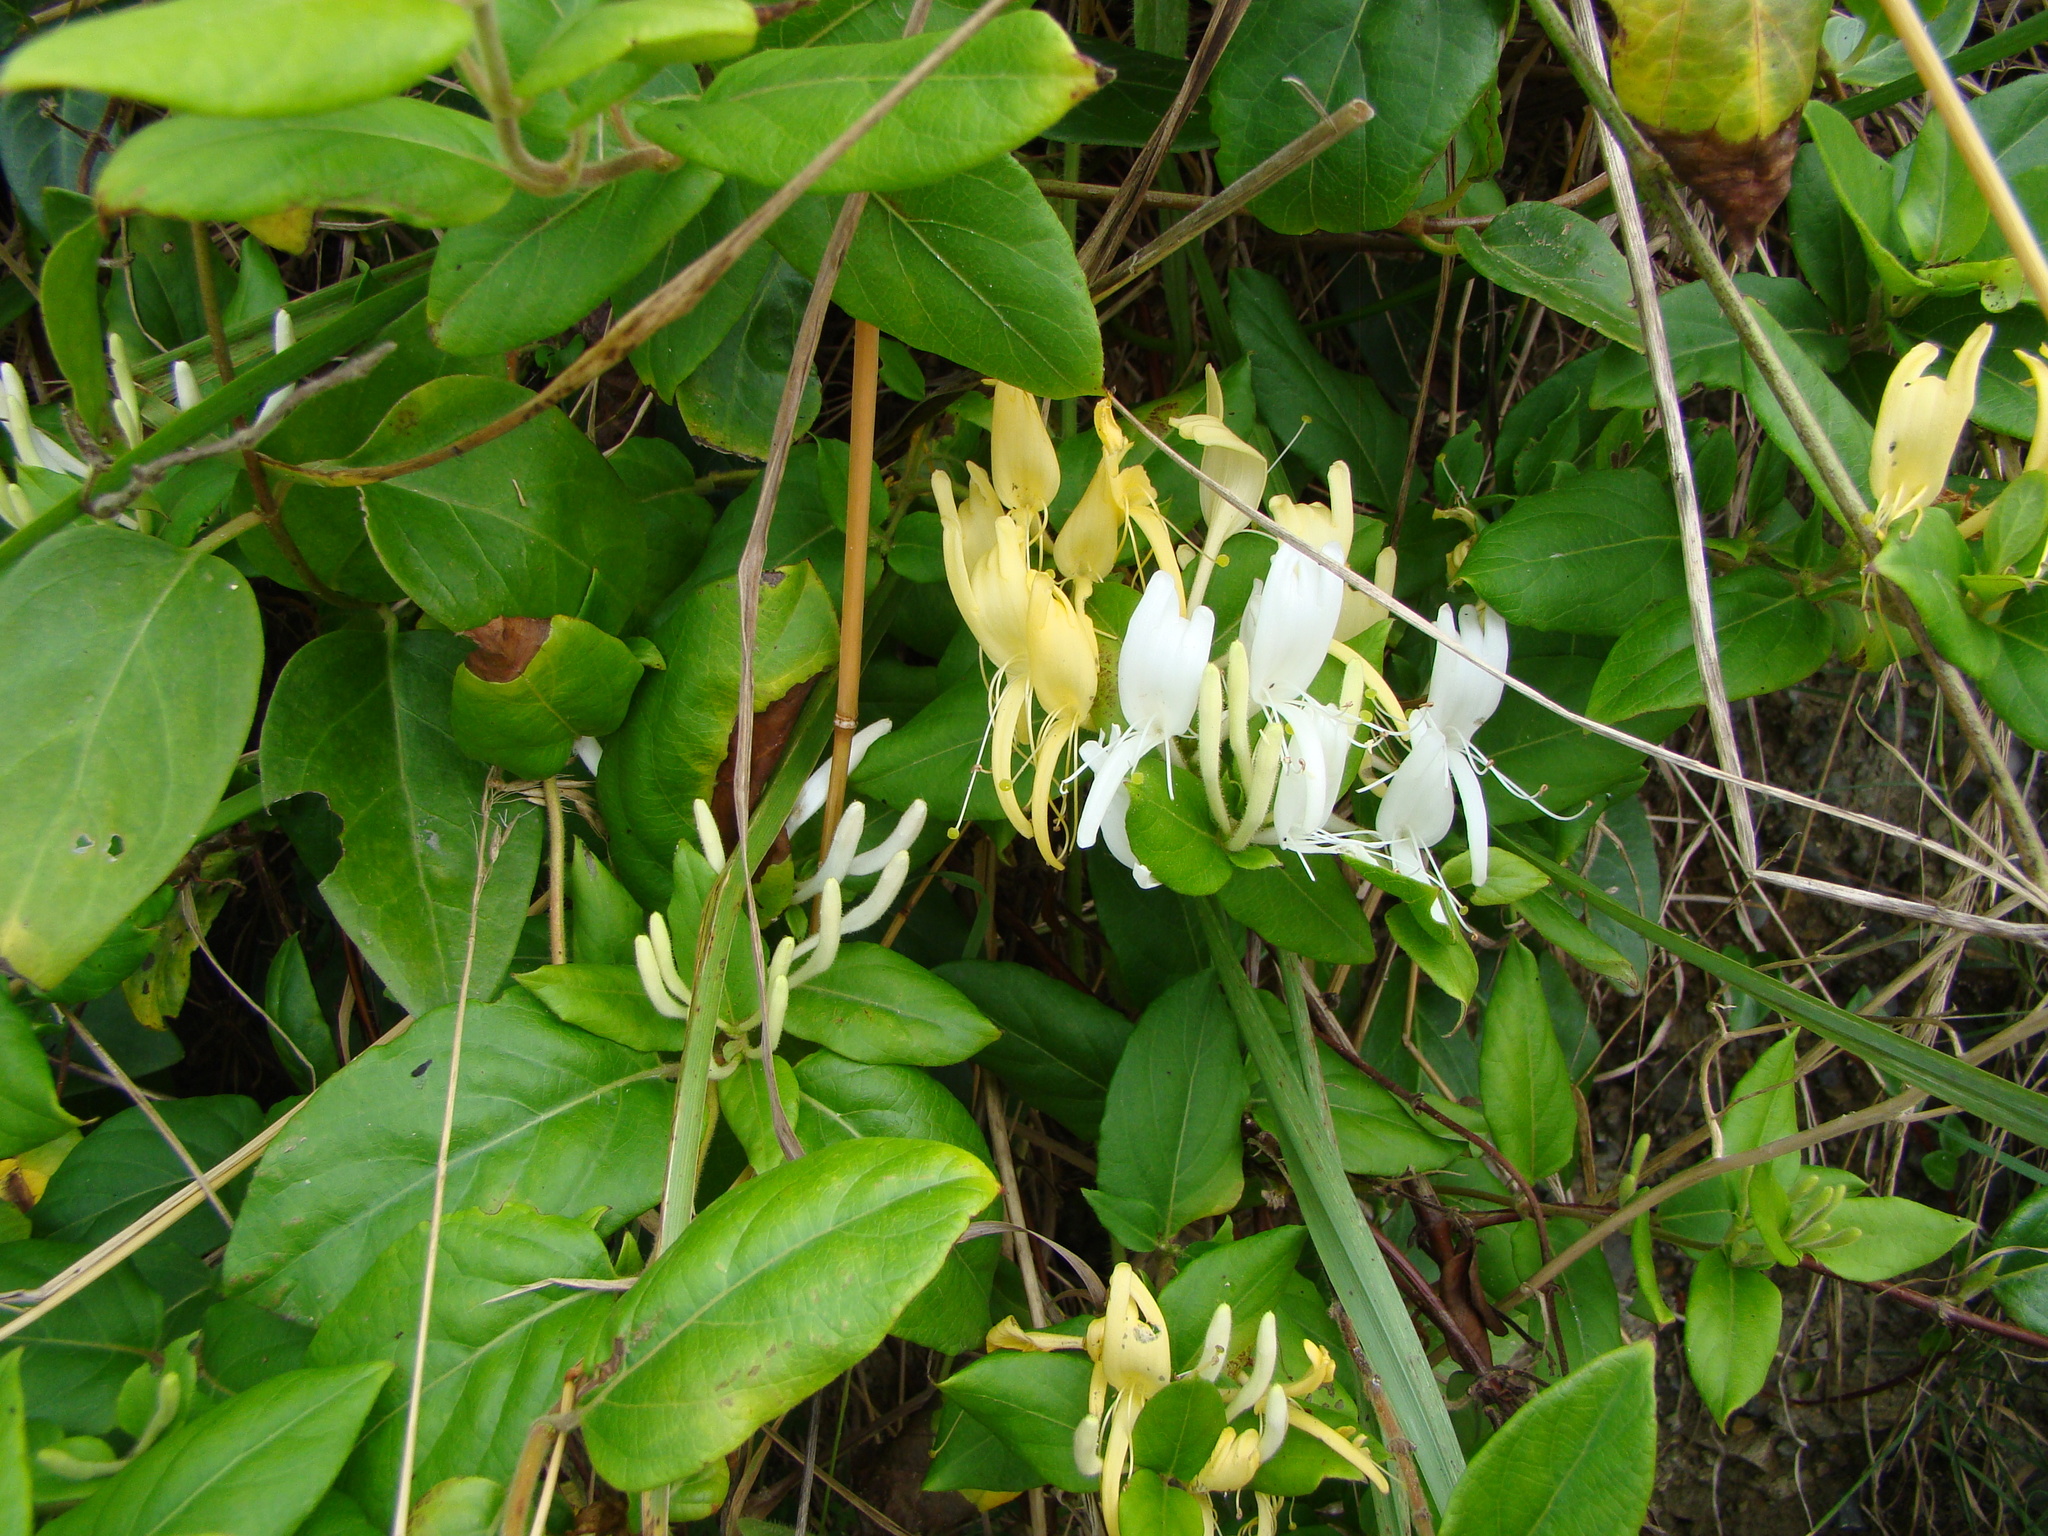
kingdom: Plantae
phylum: Tracheophyta
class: Magnoliopsida
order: Dipsacales
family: Caprifoliaceae
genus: Lonicera
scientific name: Lonicera japonica
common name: Japanese honeysuckle
